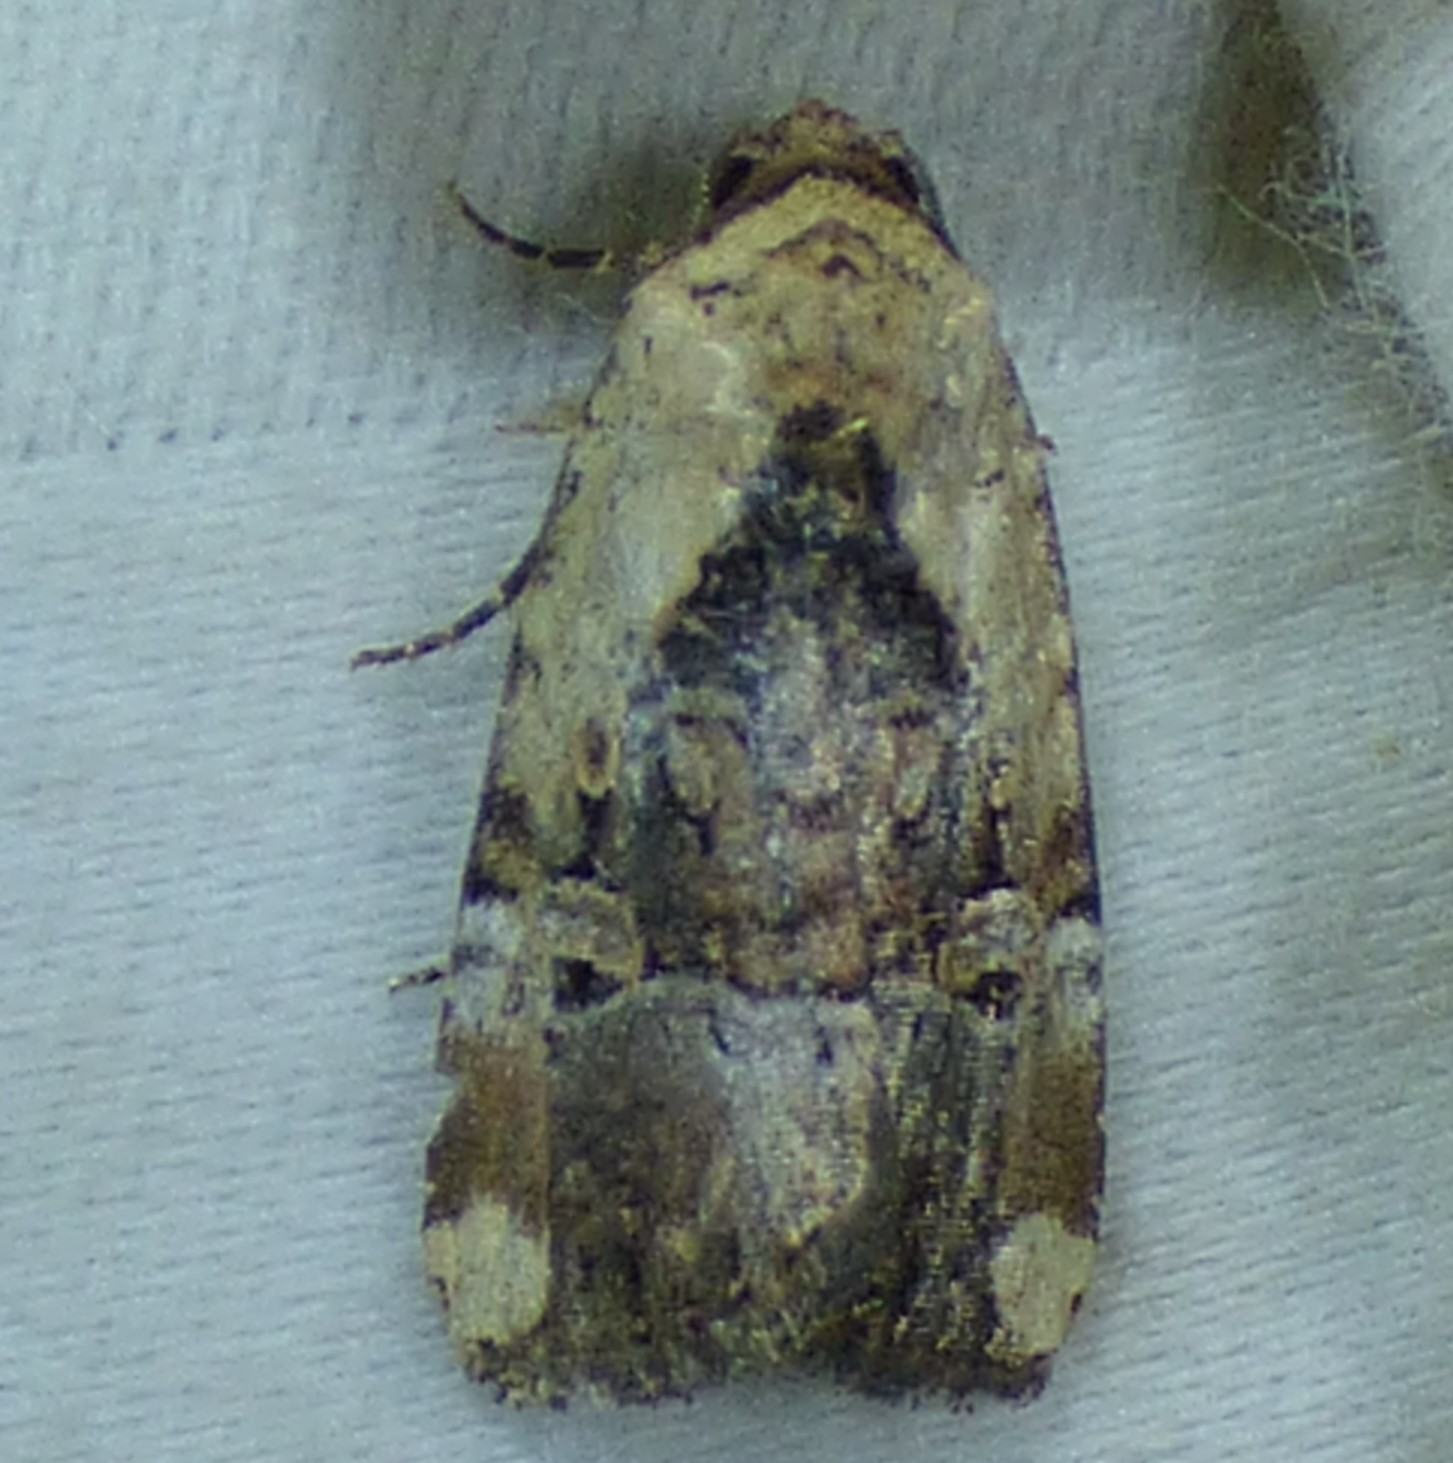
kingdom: Animalia
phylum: Arthropoda
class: Insecta
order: Lepidoptera
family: Noctuidae
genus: Elaphria
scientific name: Elaphria chalcedonia
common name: Chalcedony midget
